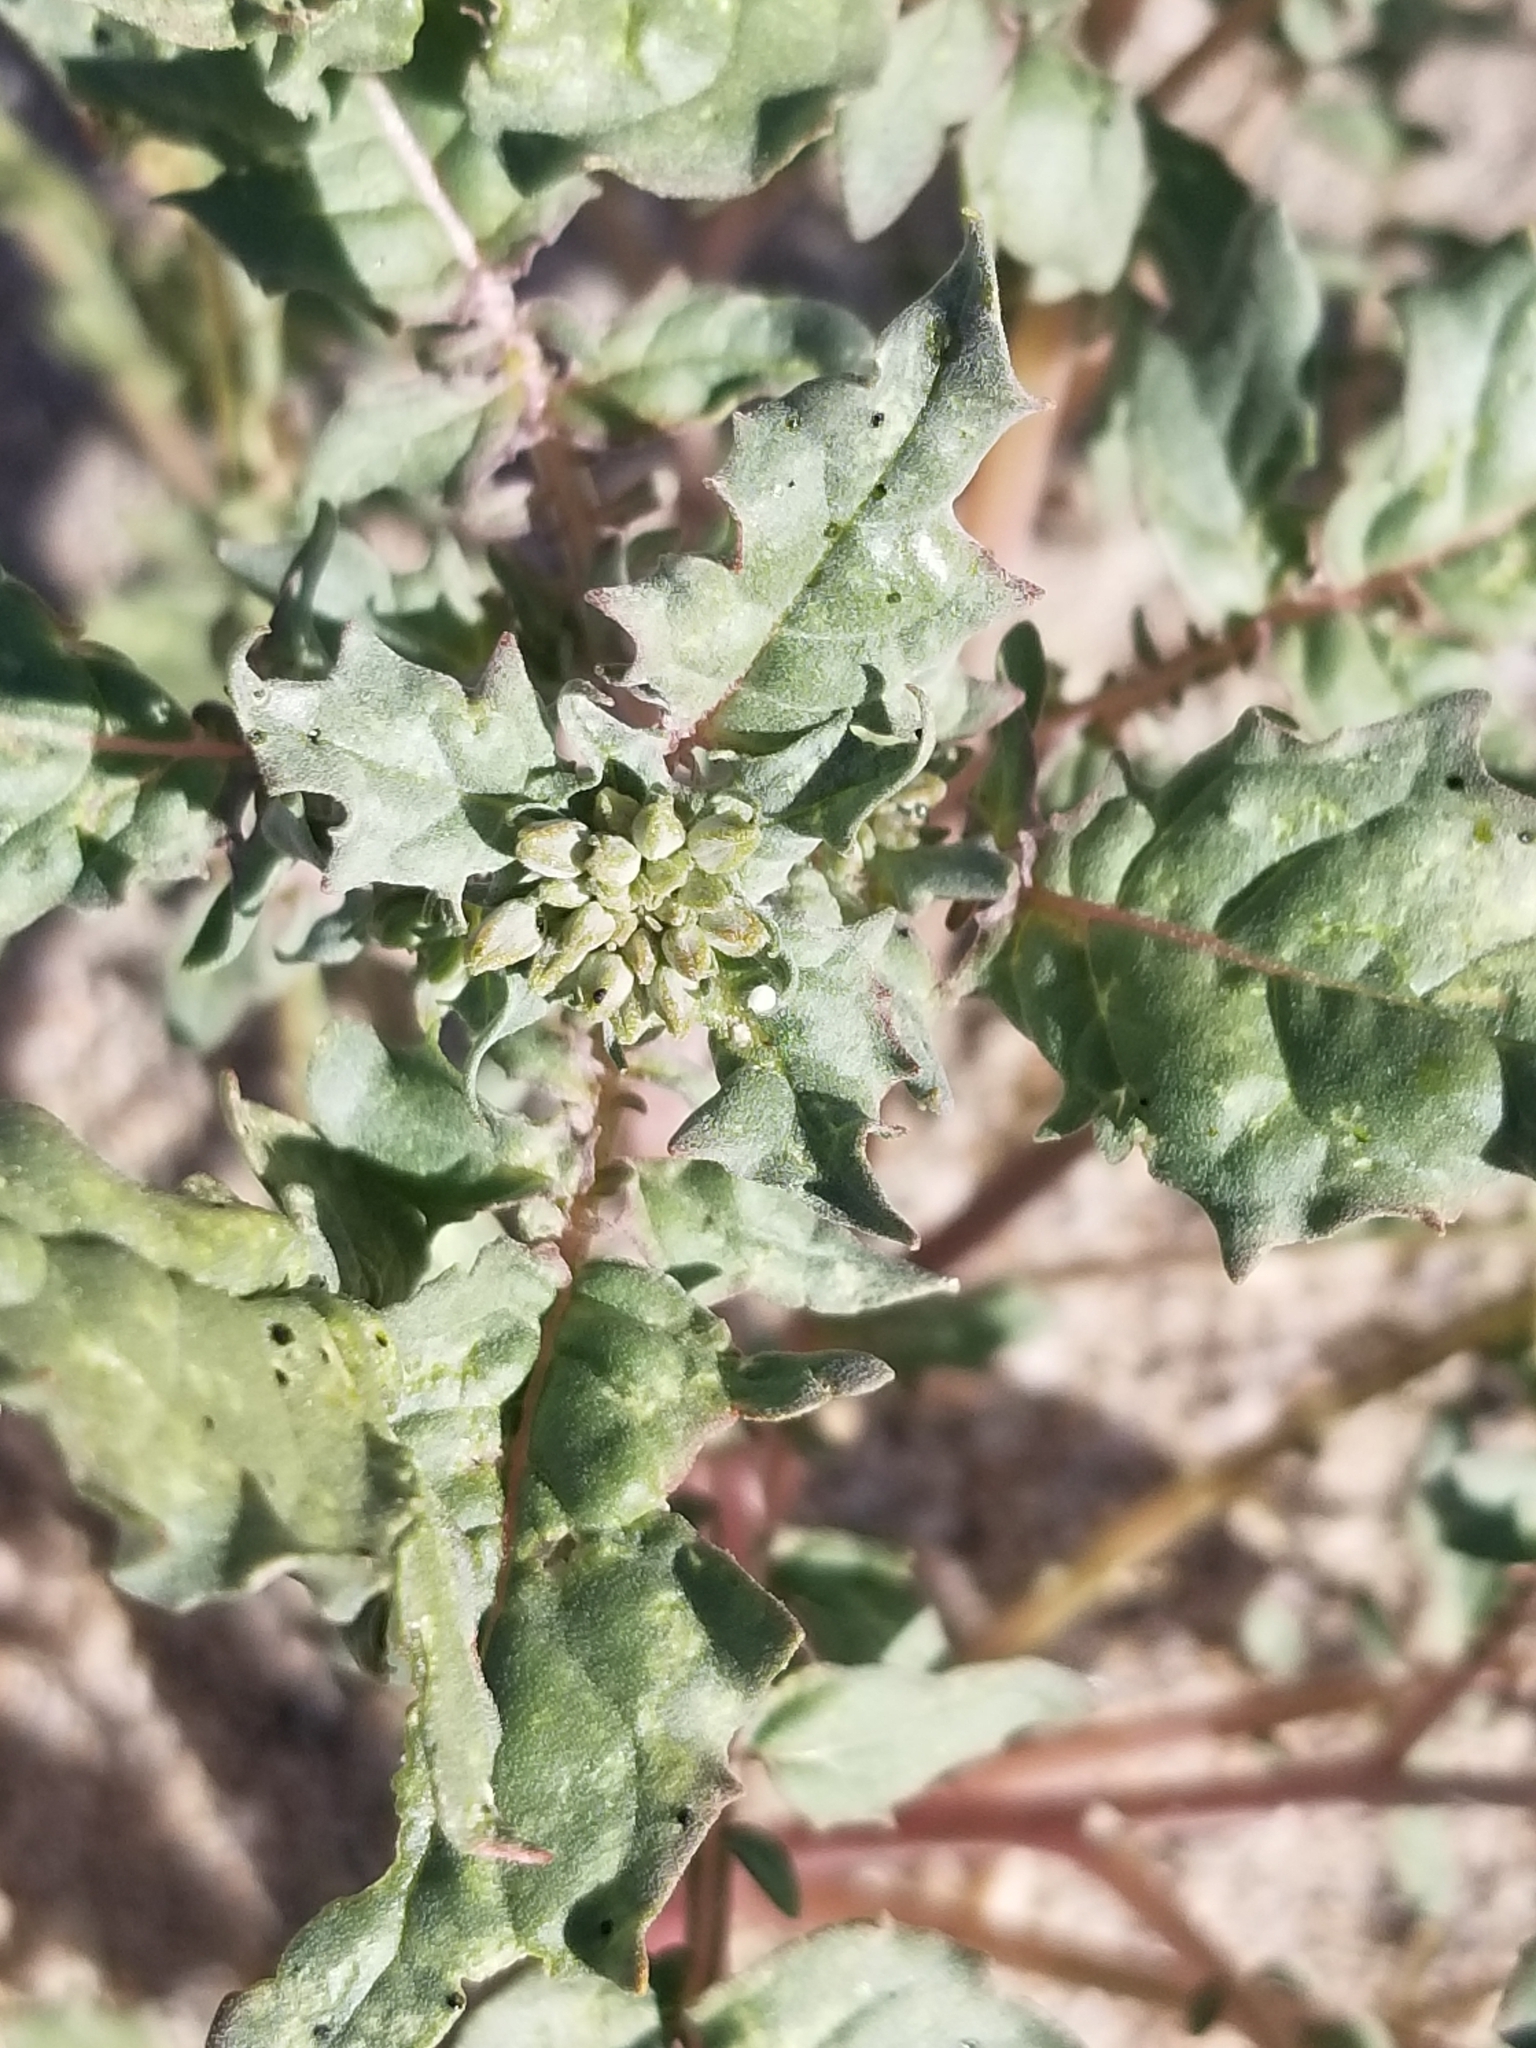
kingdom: Plantae
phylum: Tracheophyta
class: Magnoliopsida
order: Myrtales
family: Onagraceae
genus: Chylismia
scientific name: Chylismia claviformis
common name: Browneyes
